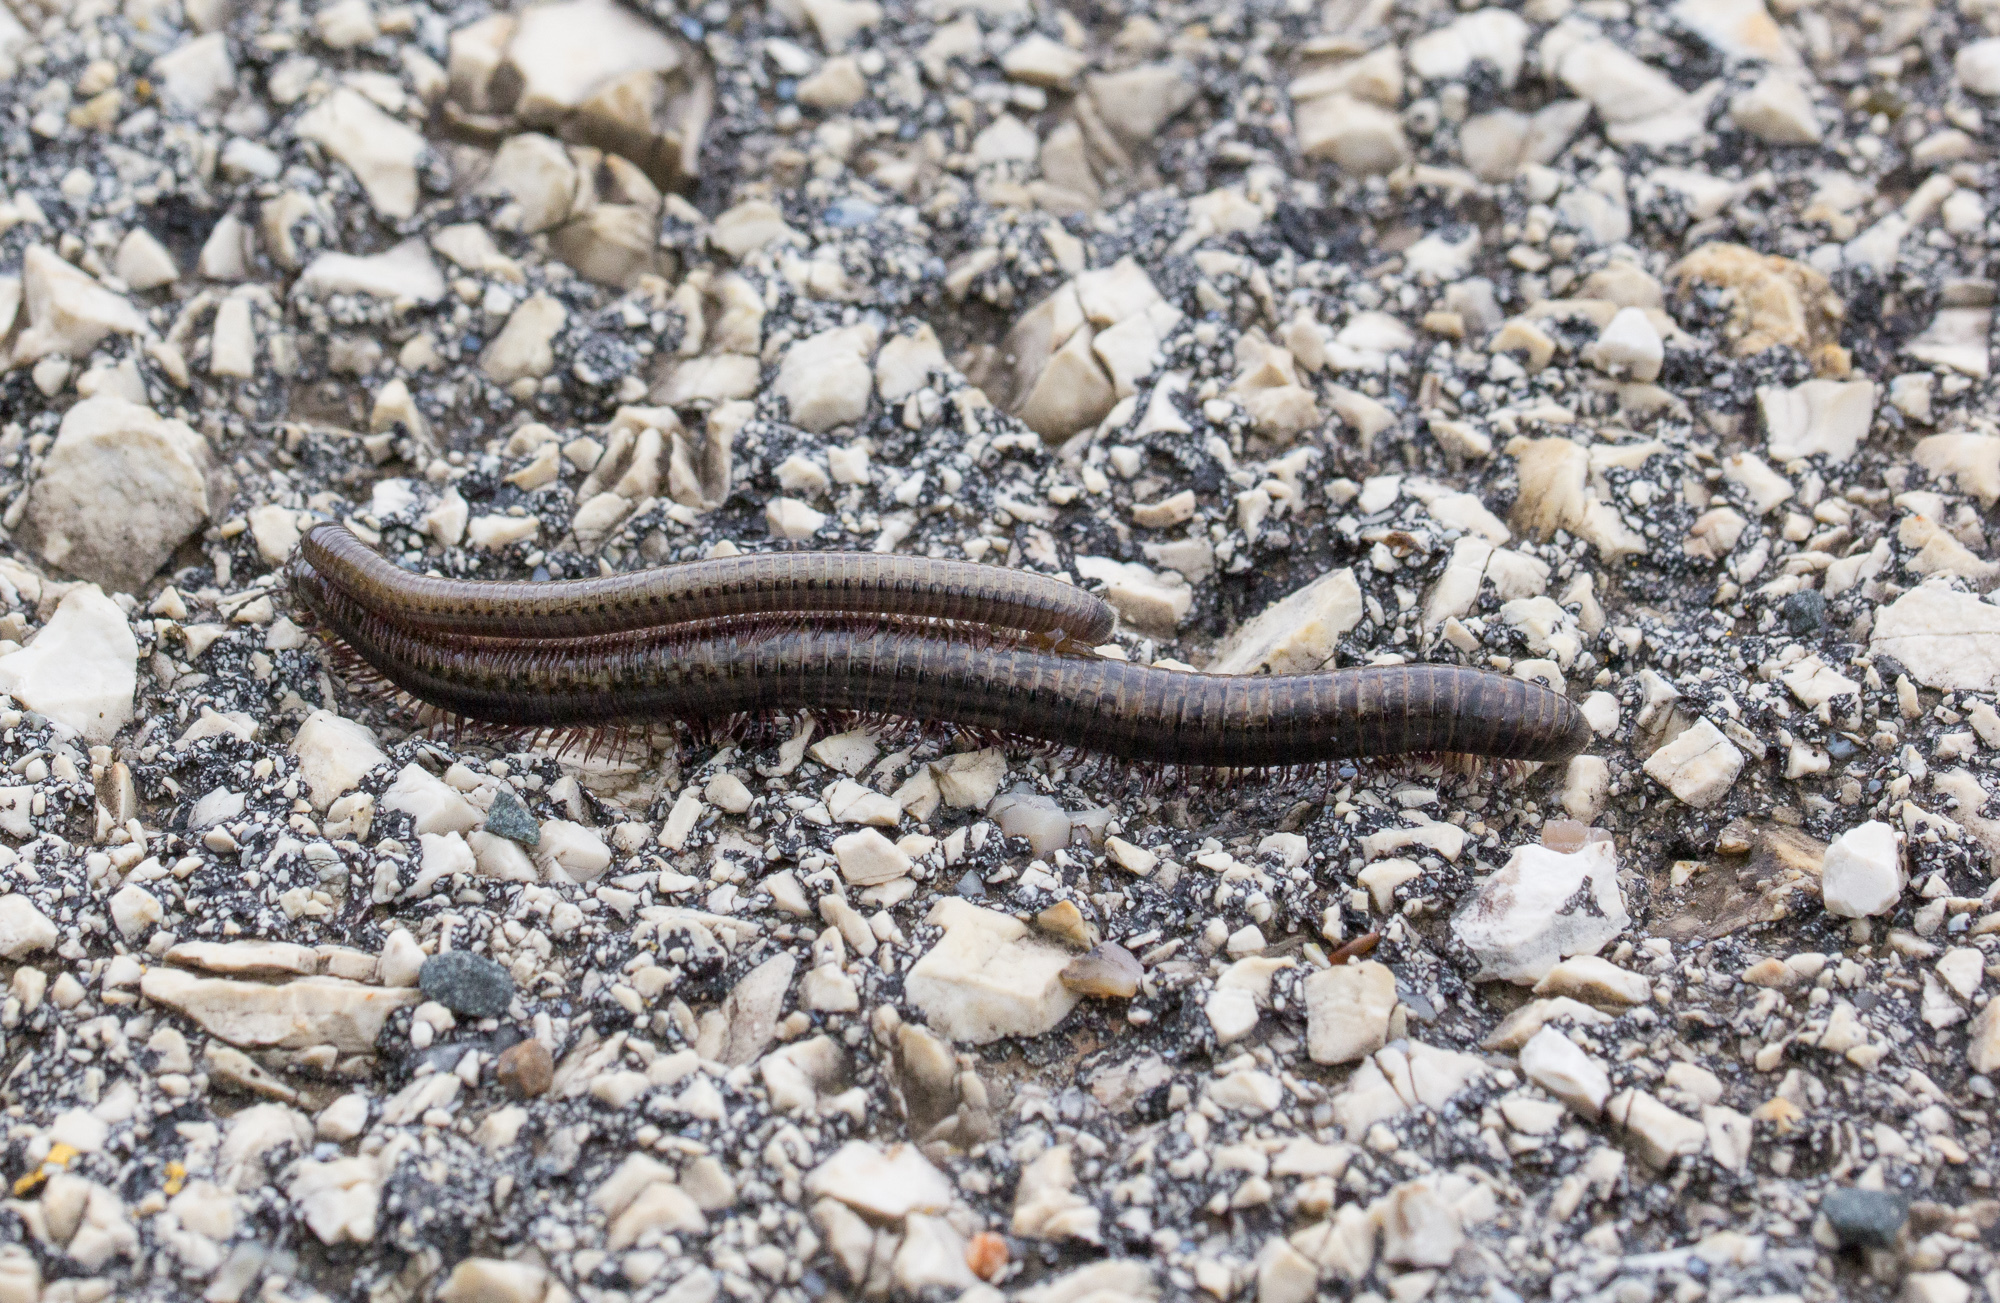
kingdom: Animalia
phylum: Arthropoda
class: Diplopoda
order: Julida
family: Julidae
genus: Pachyiulus
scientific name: Pachyiulus marmoratus
